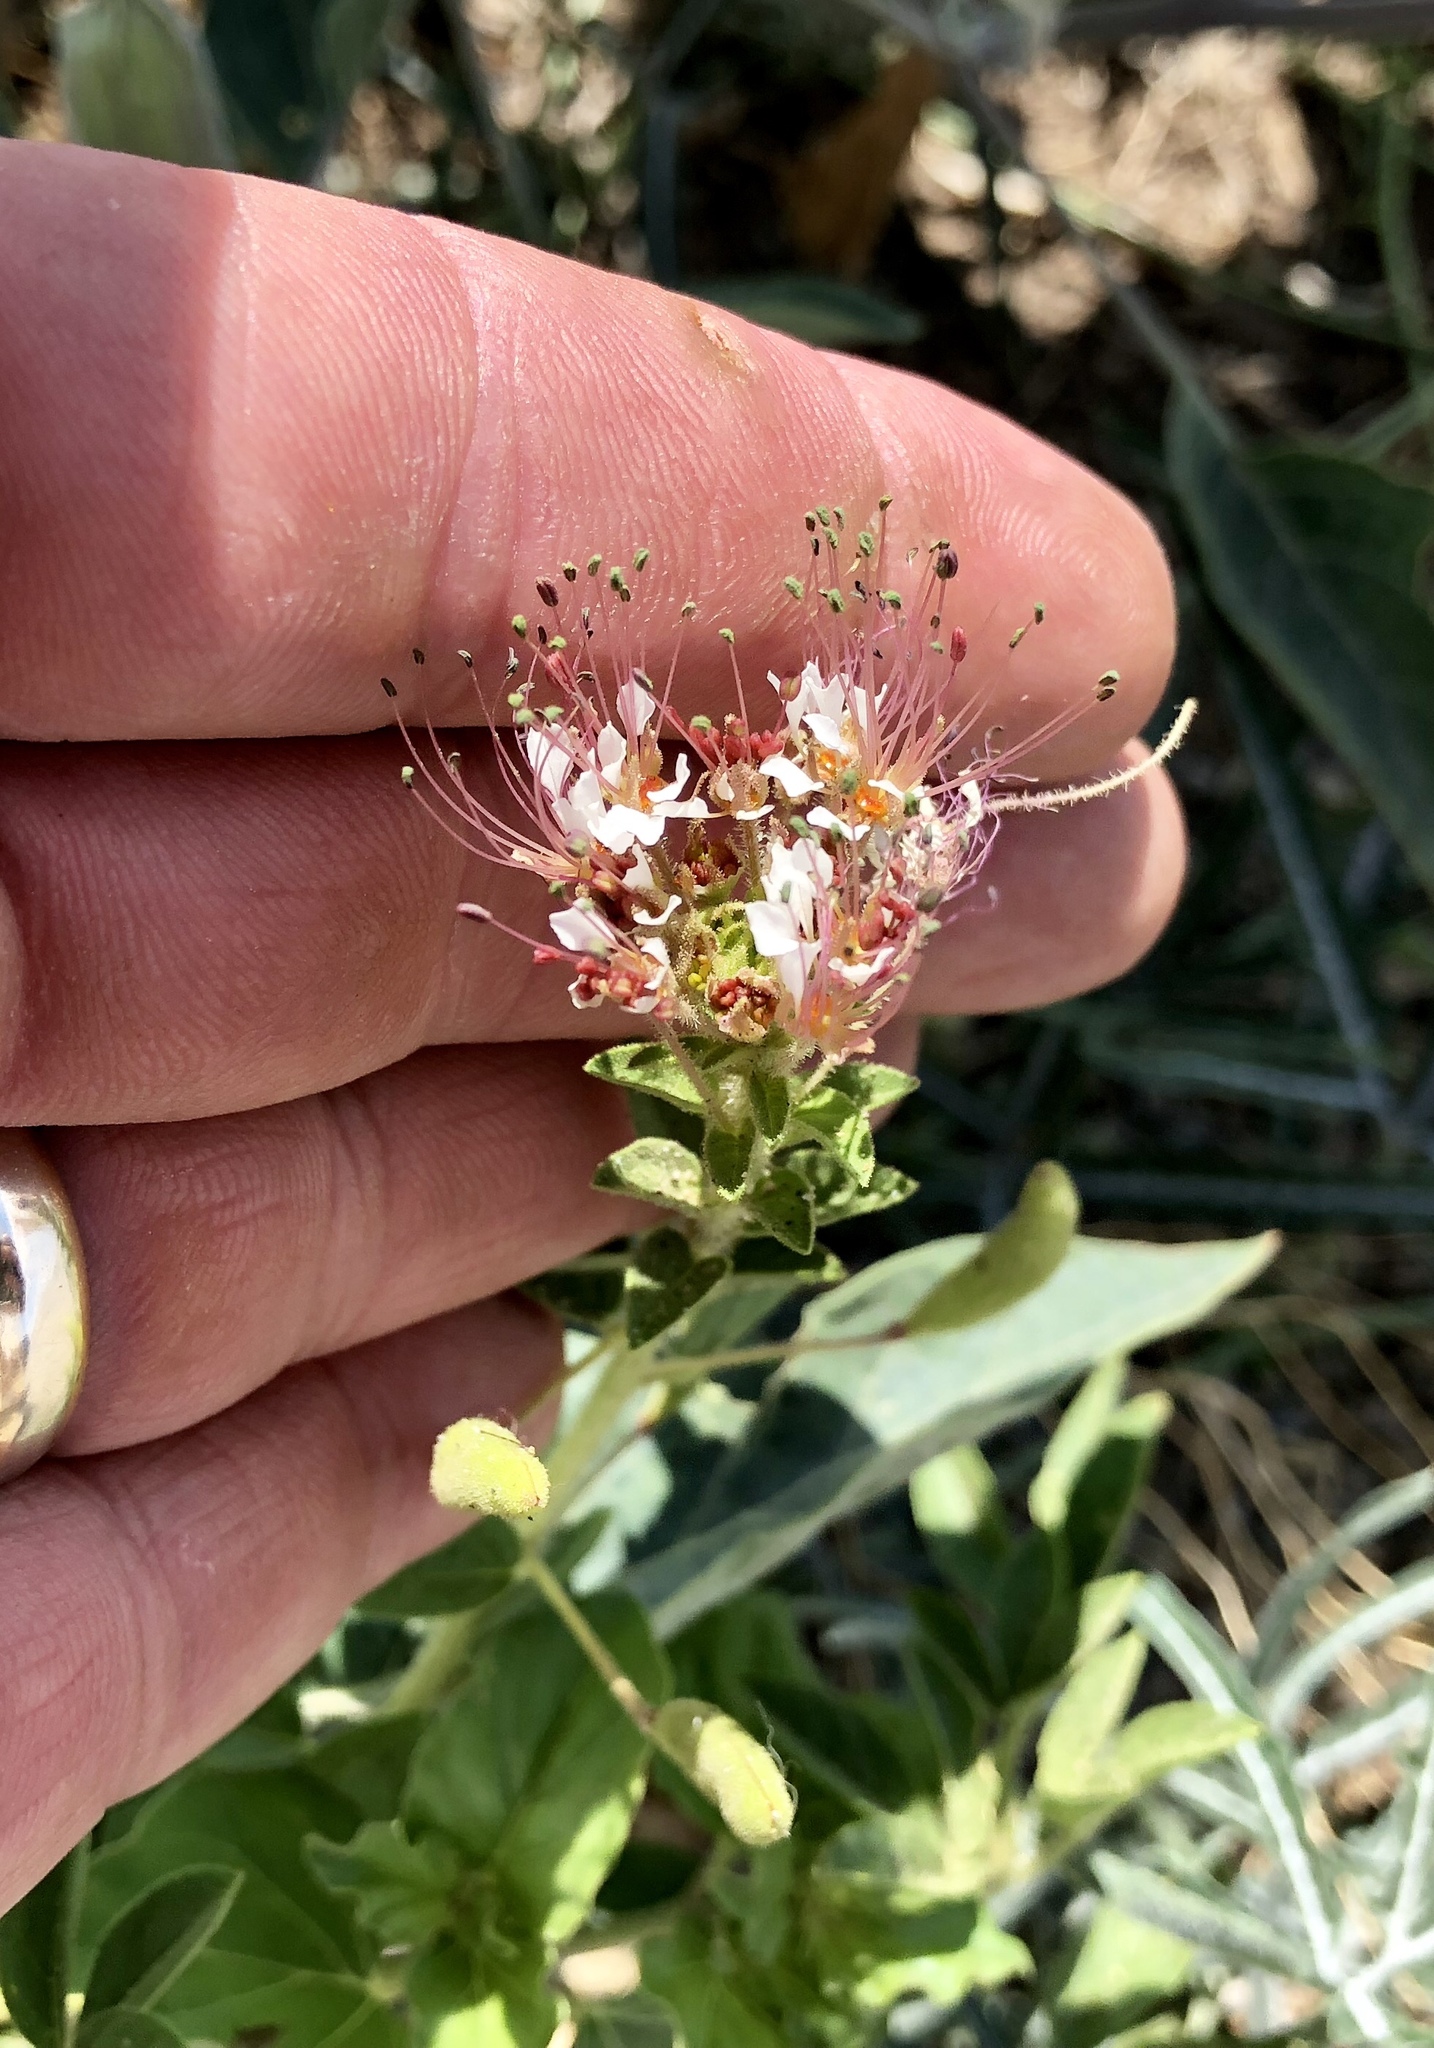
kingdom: Plantae
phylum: Tracheophyta
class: Magnoliopsida
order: Brassicales
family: Cleomaceae
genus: Polanisia
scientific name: Polanisia trachysperma
